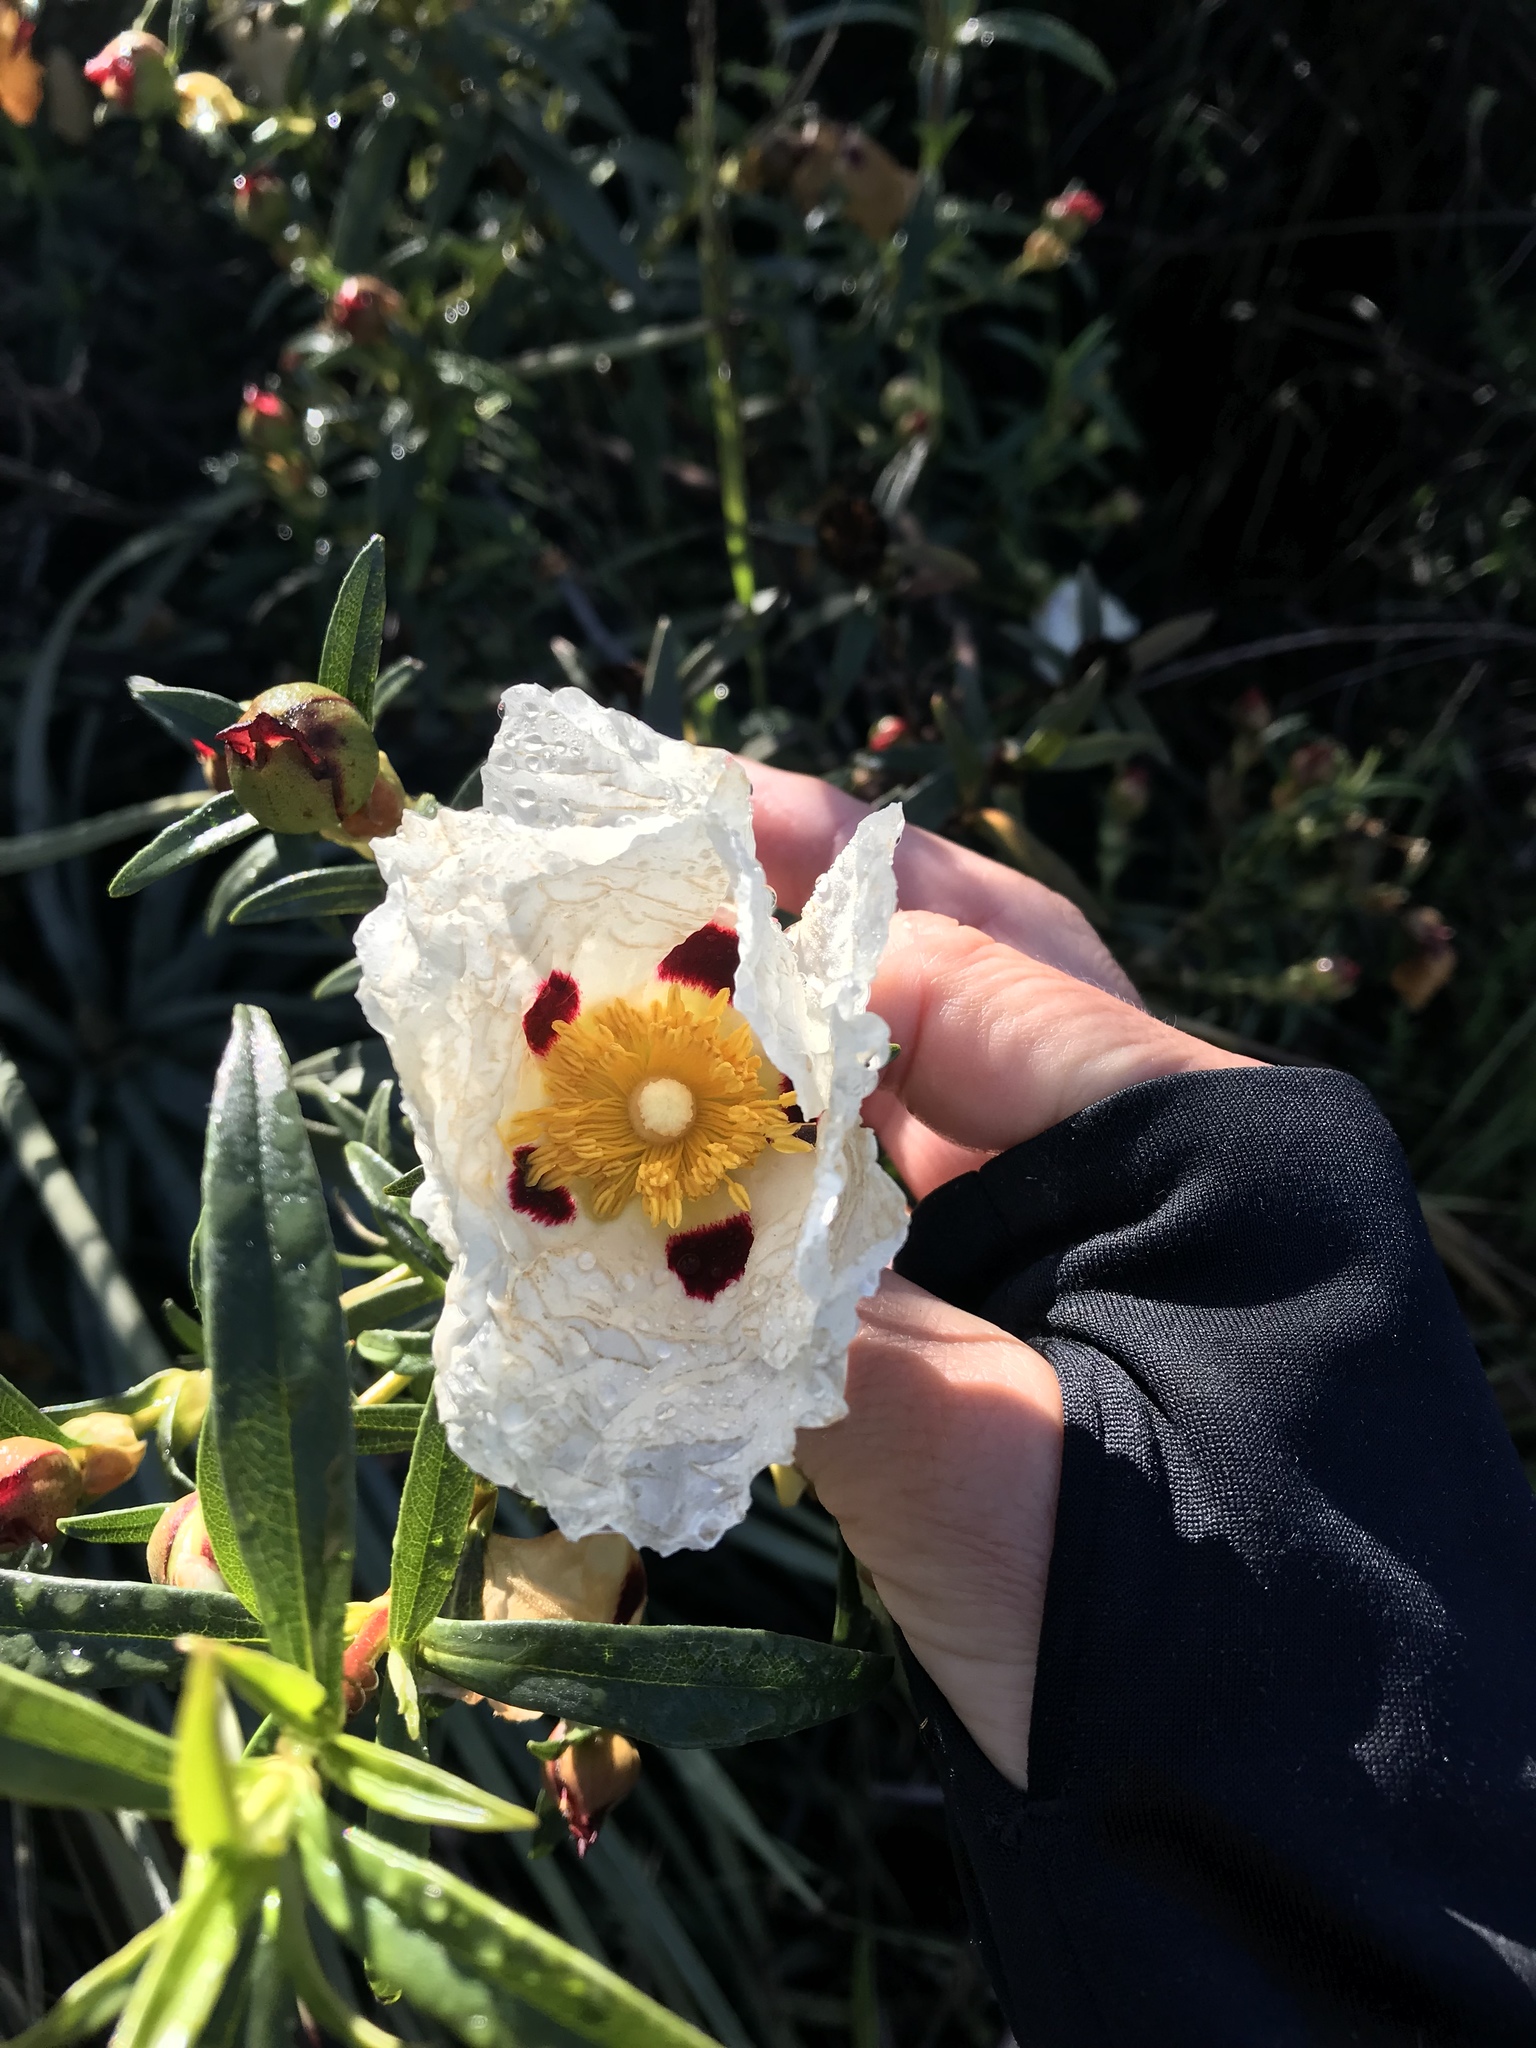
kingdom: Plantae
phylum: Tracheophyta
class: Magnoliopsida
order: Malvales
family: Cistaceae
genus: Cistus
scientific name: Cistus ladanifer
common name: Common gum cistus
